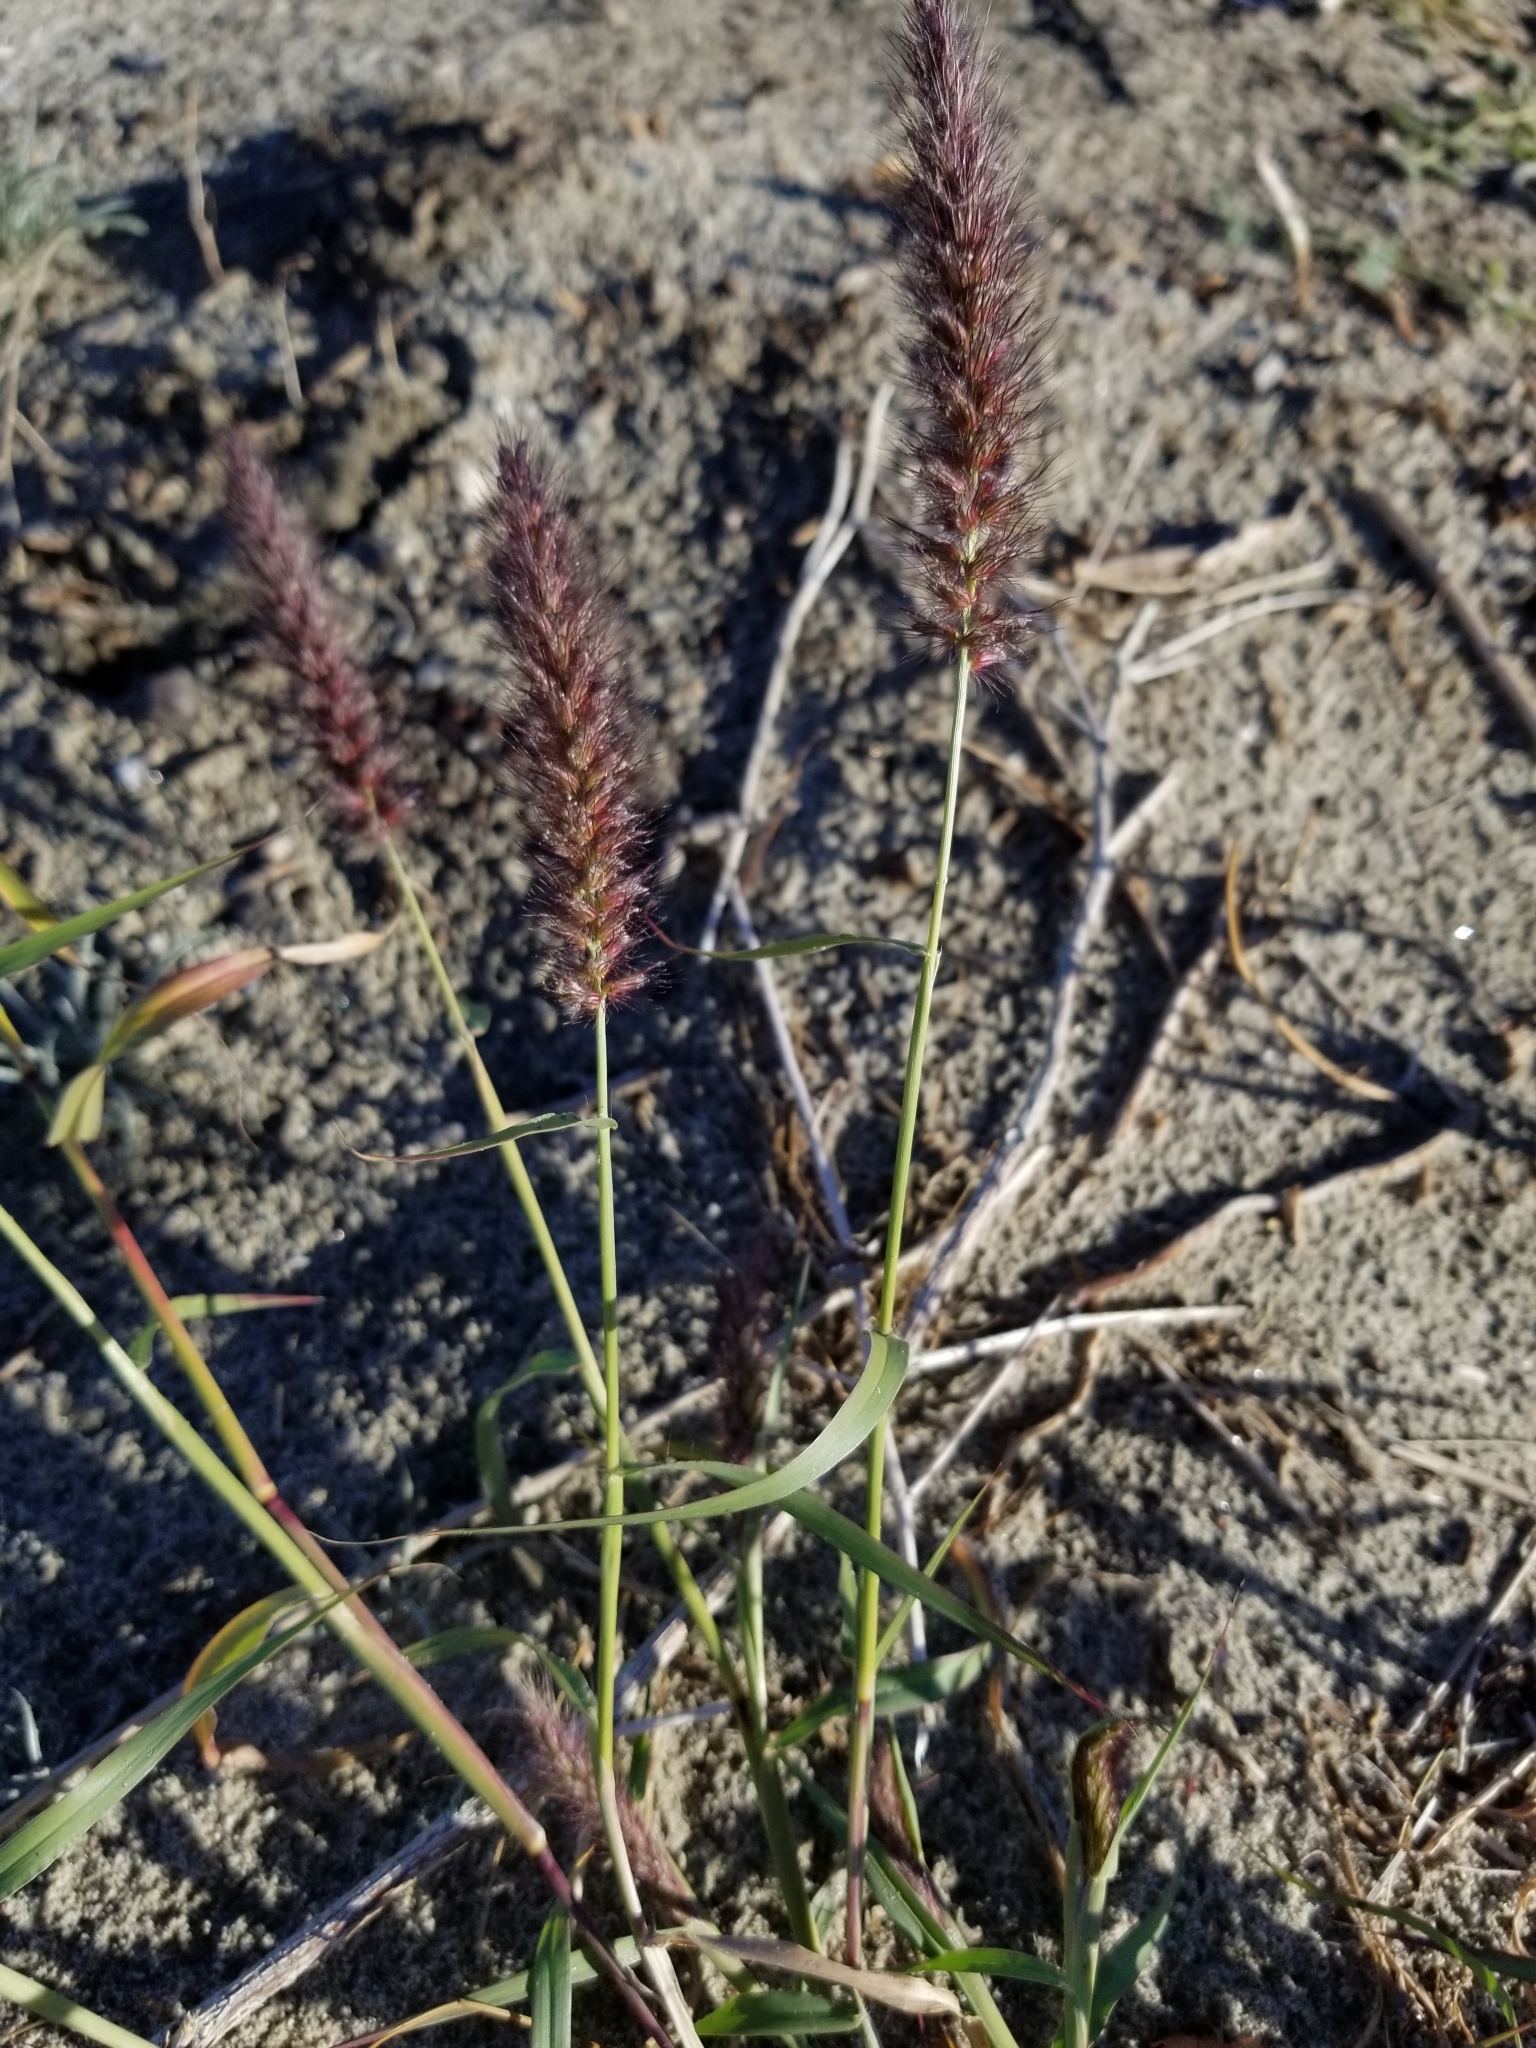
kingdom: Plantae
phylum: Tracheophyta
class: Liliopsida
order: Poales
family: Poaceae
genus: Cenchrus
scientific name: Cenchrus setaceus
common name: Crimson fountaingrass
